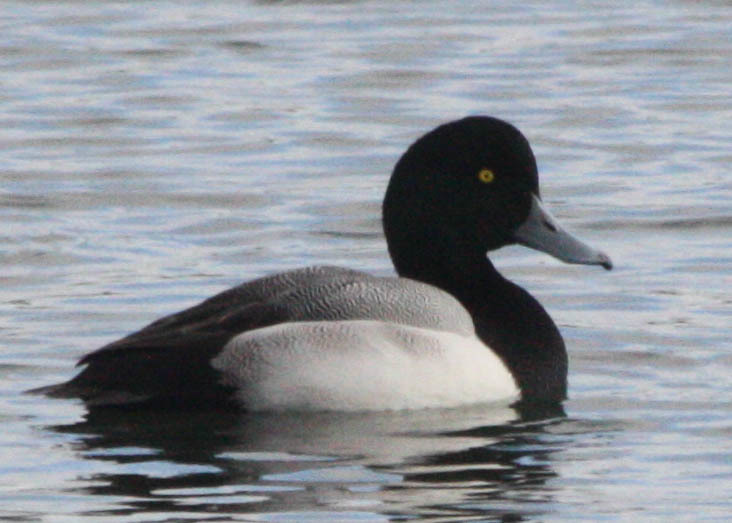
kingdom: Animalia
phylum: Chordata
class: Aves
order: Anseriformes
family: Anatidae
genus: Aythya
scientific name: Aythya marila
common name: Greater scaup
